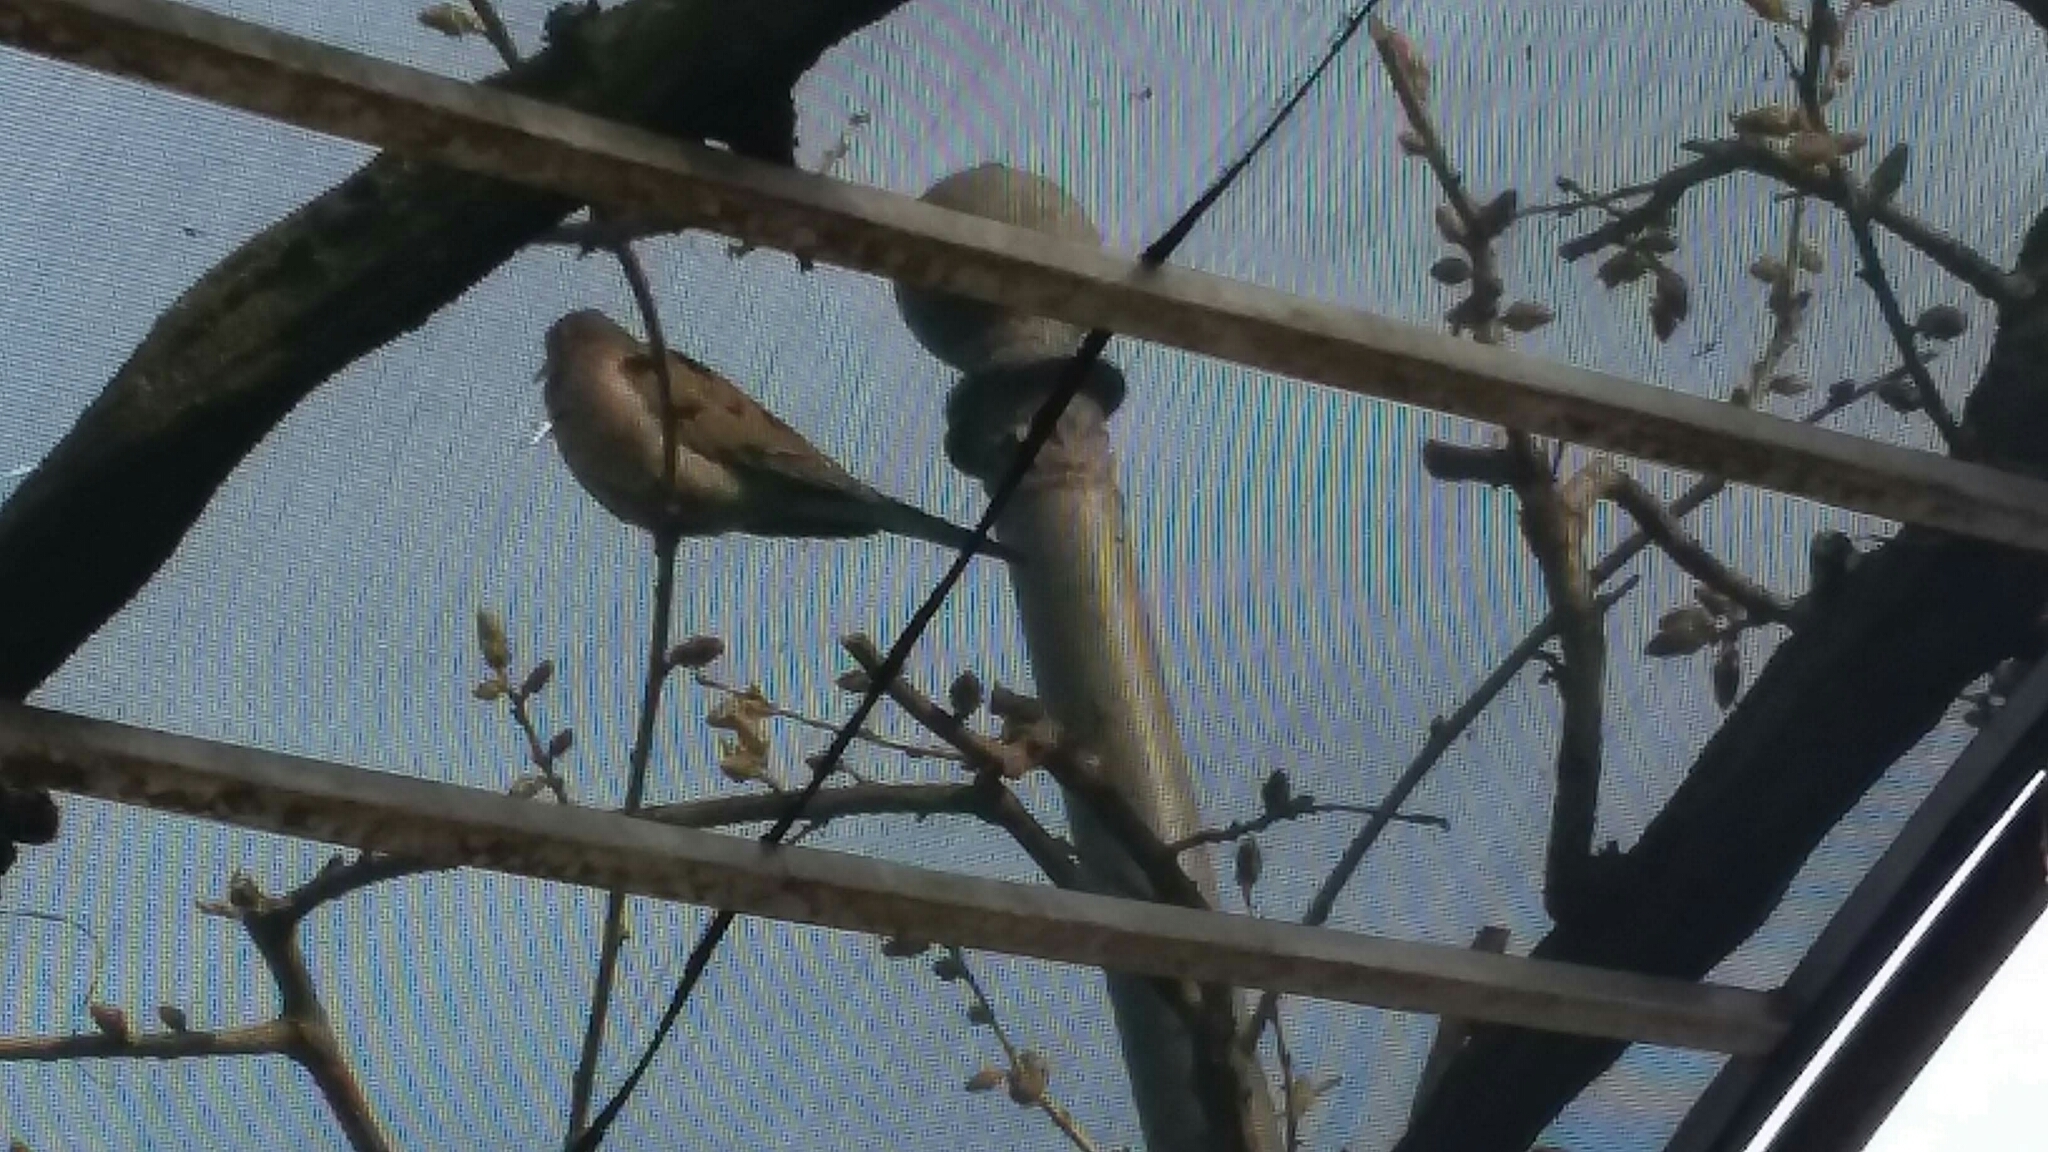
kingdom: Animalia
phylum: Chordata
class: Aves
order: Columbiformes
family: Columbidae
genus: Zenaida
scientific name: Zenaida macroura
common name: Mourning dove
